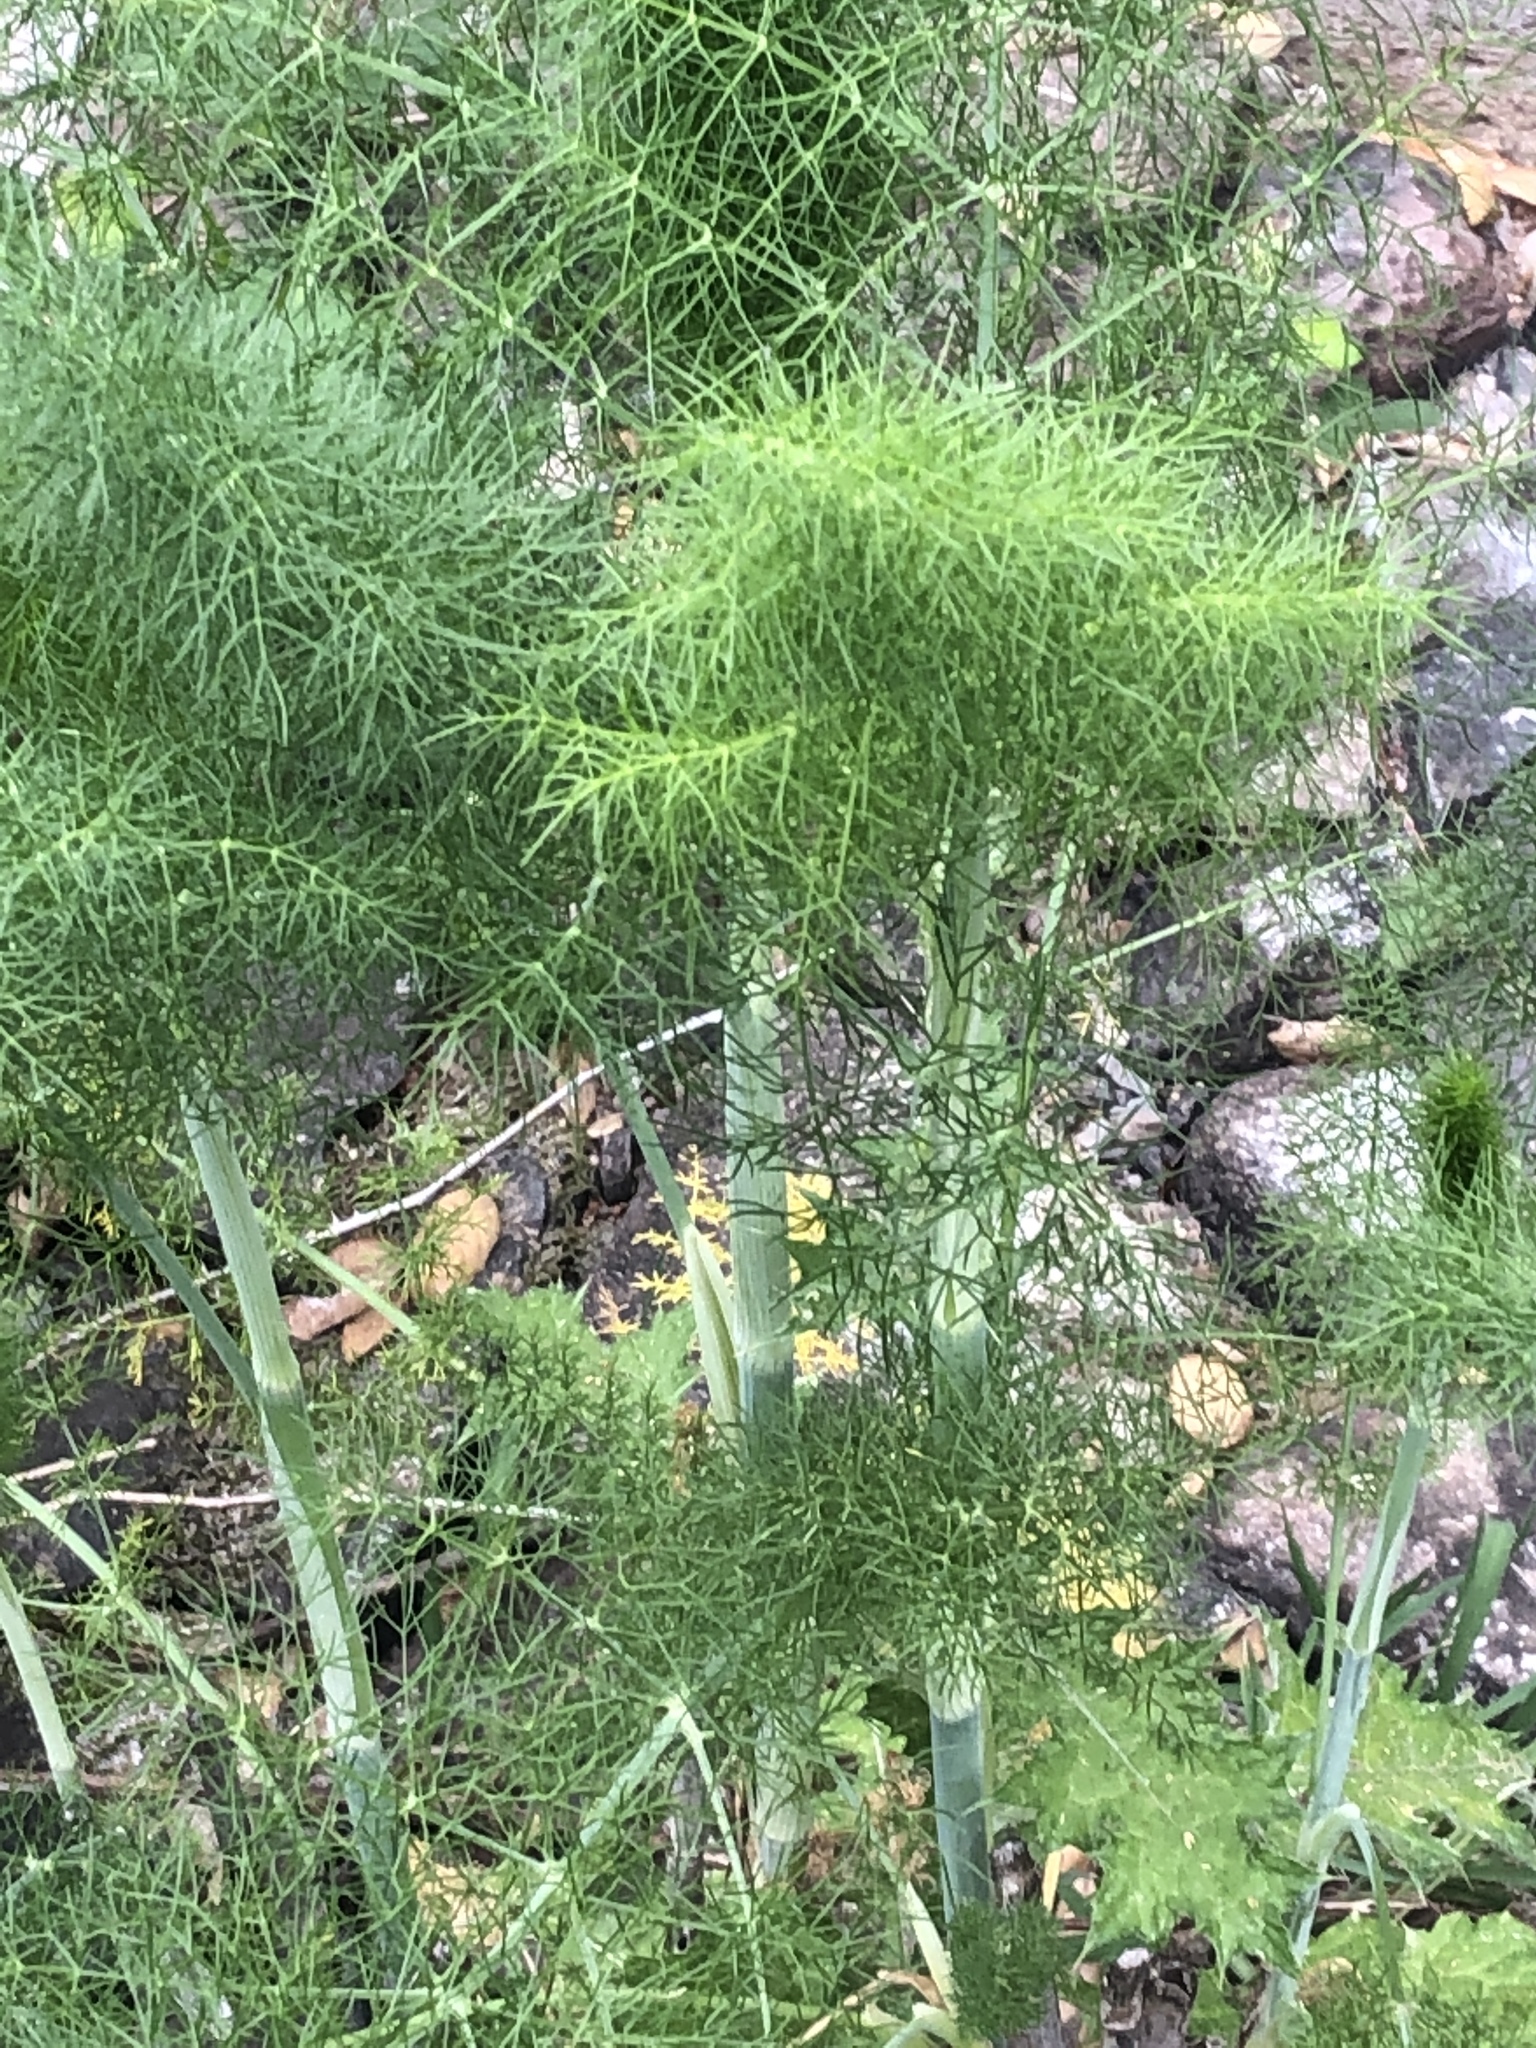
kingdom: Plantae
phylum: Tracheophyta
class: Magnoliopsida
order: Apiales
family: Apiaceae
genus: Foeniculum
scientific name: Foeniculum vulgare
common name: Fennel
